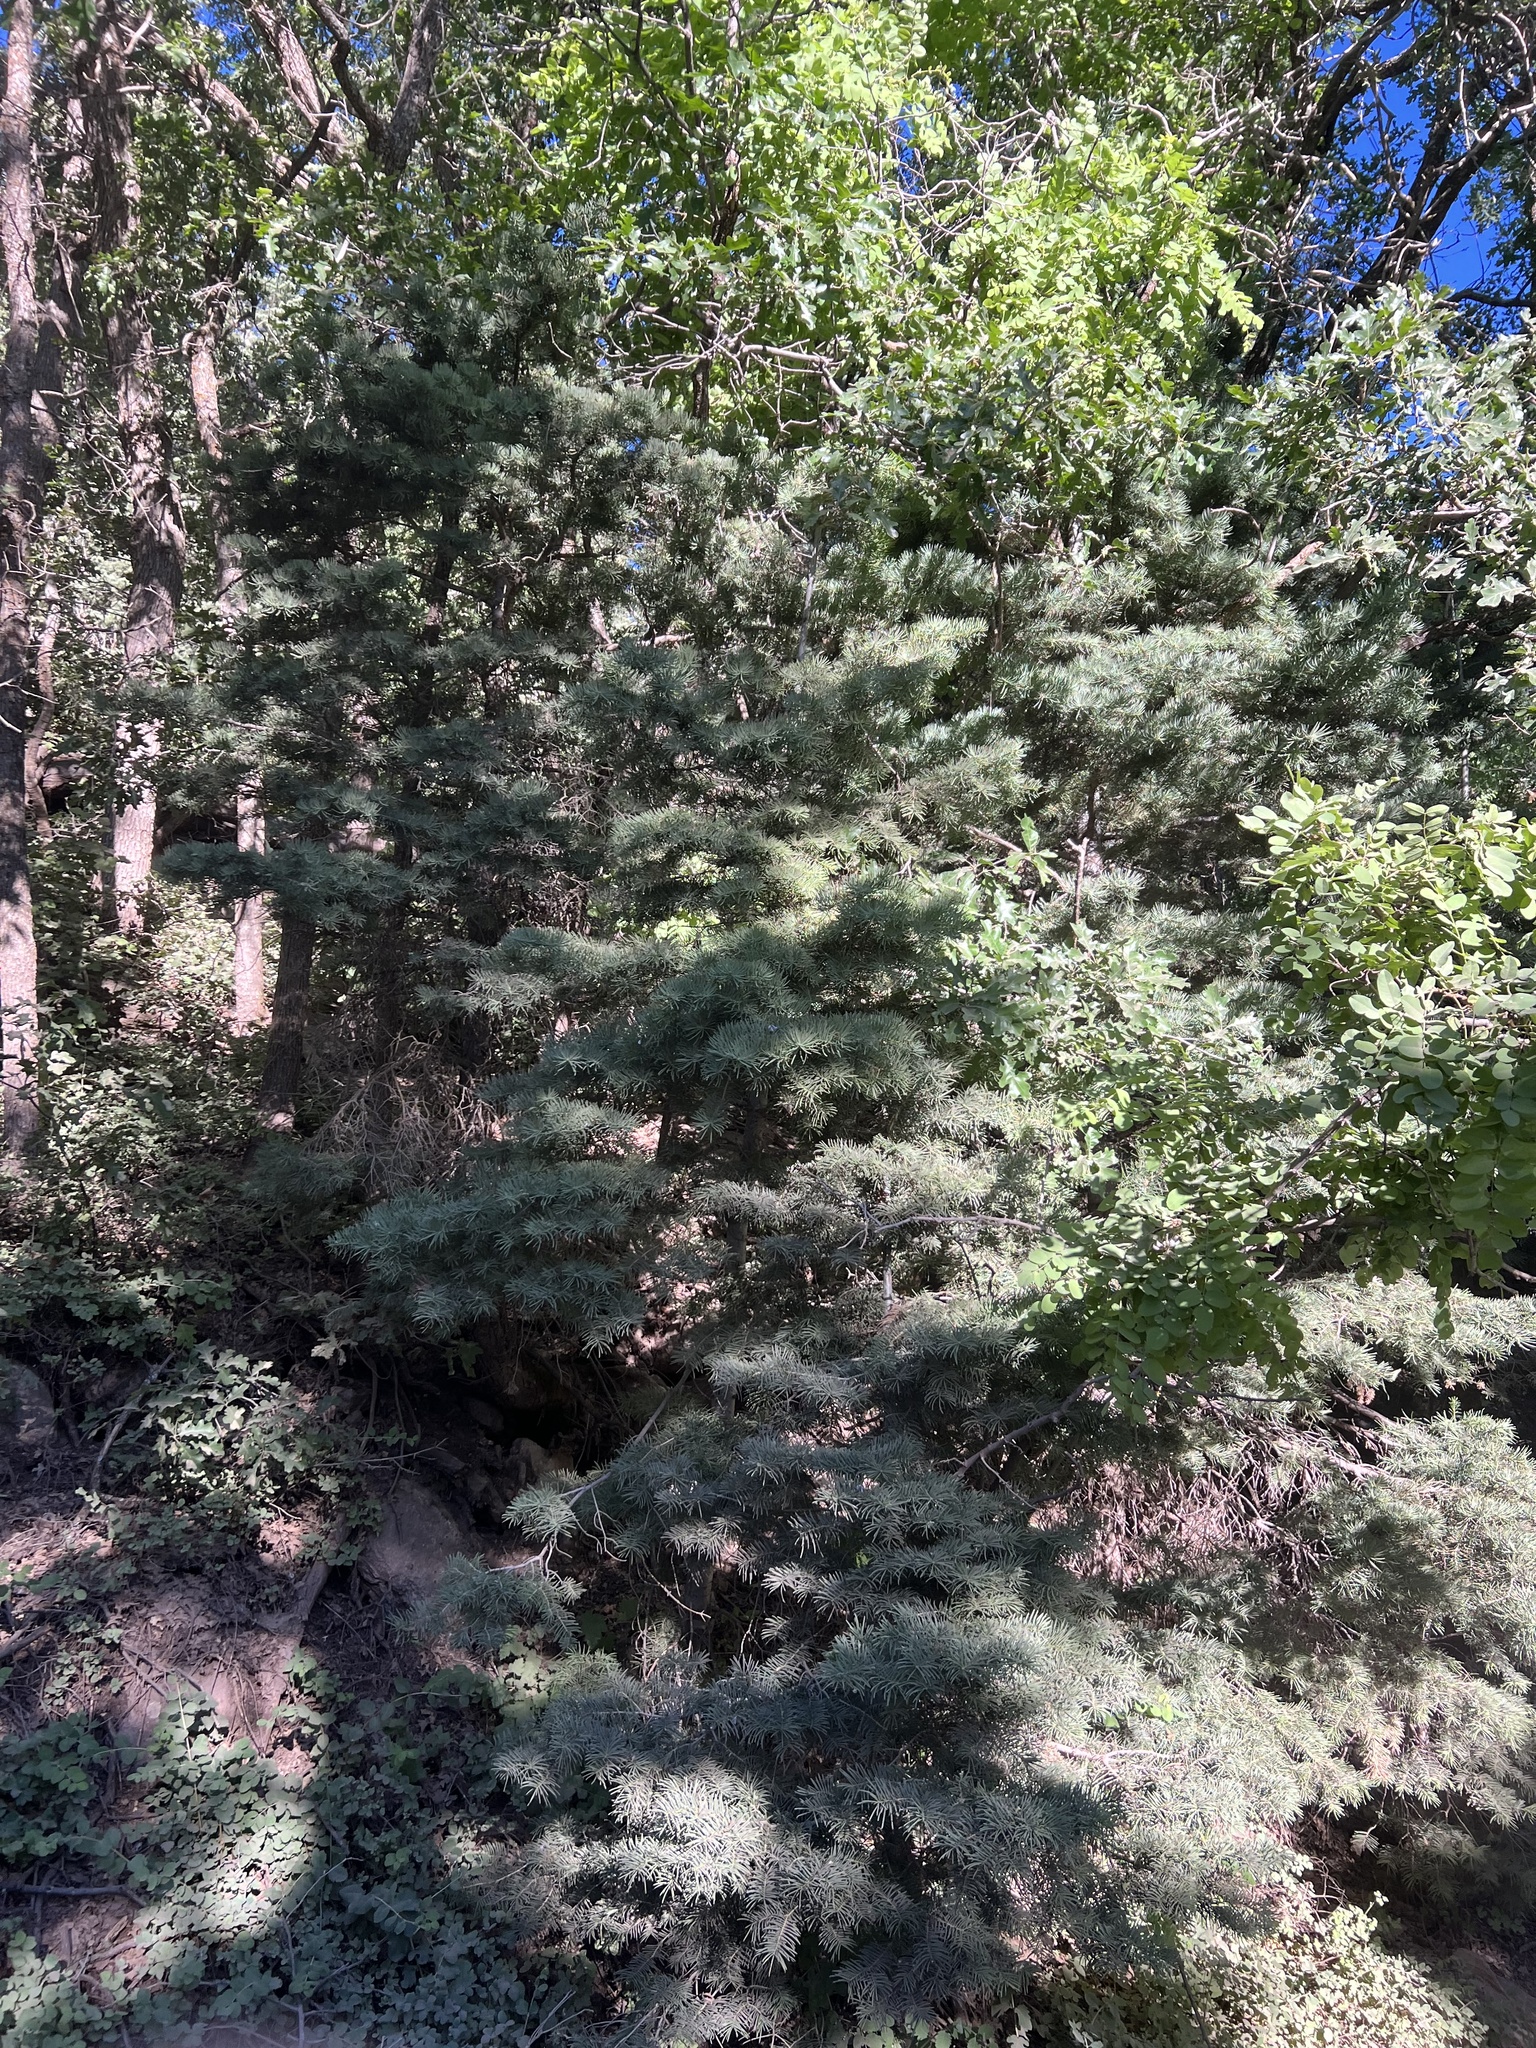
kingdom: Plantae
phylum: Tracheophyta
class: Pinopsida
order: Pinales
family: Pinaceae
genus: Abies
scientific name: Abies concolor
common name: Colorado fir
